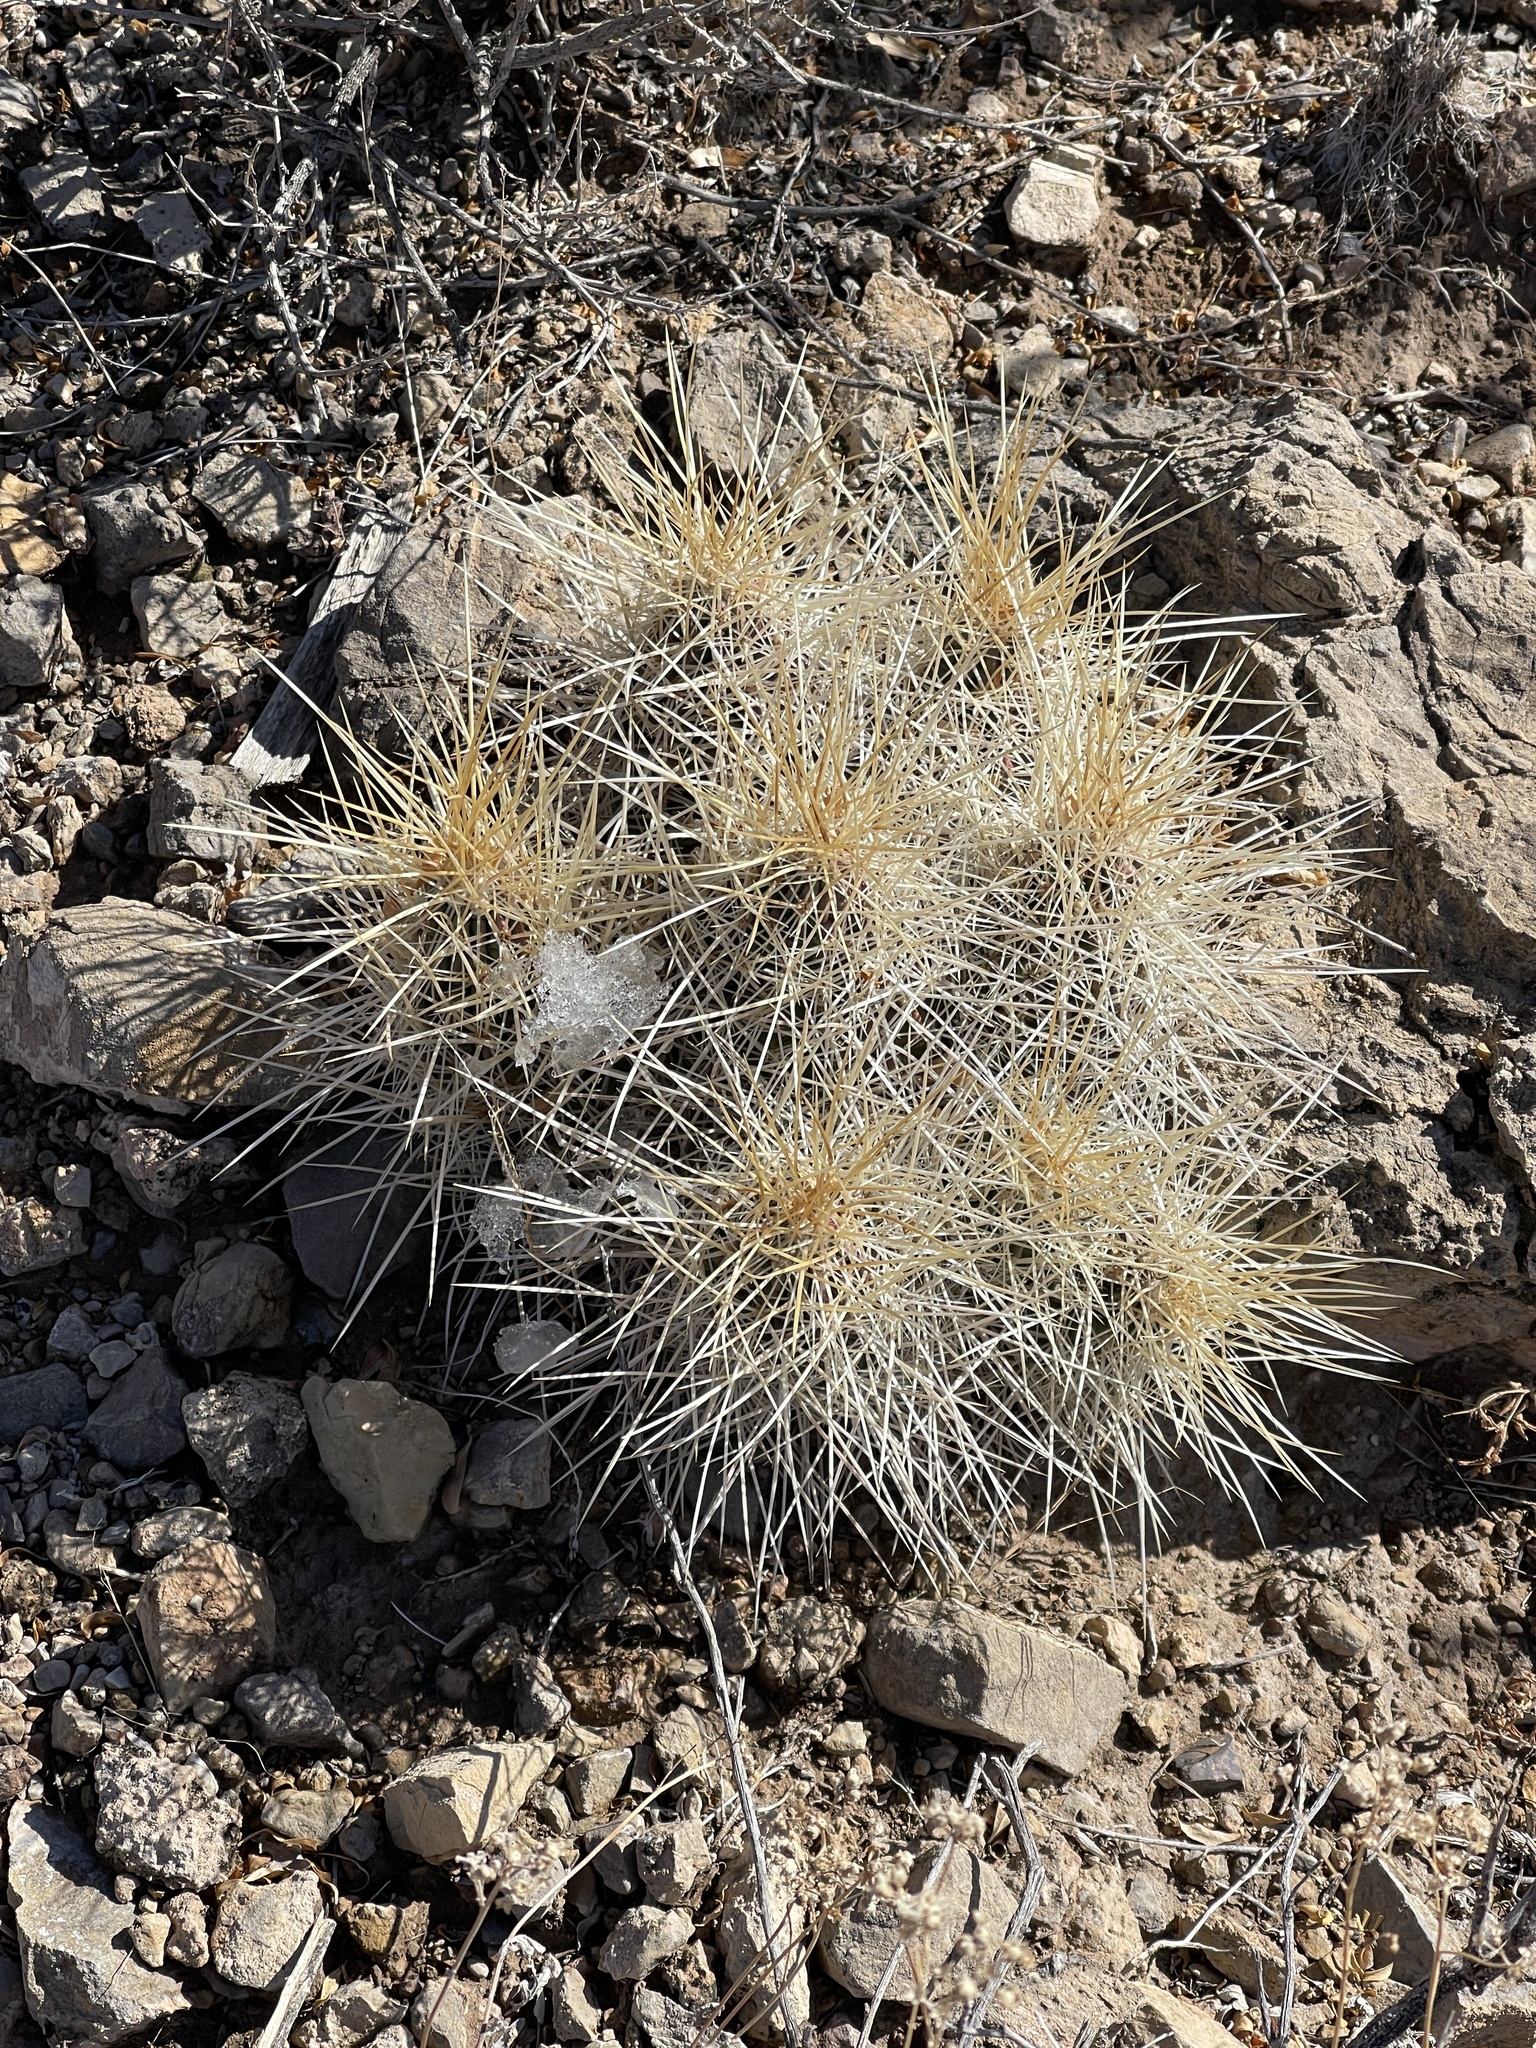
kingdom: Plantae
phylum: Tracheophyta
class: Magnoliopsida
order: Caryophyllales
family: Cactaceae
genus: Echinocereus
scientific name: Echinocereus stramineus
